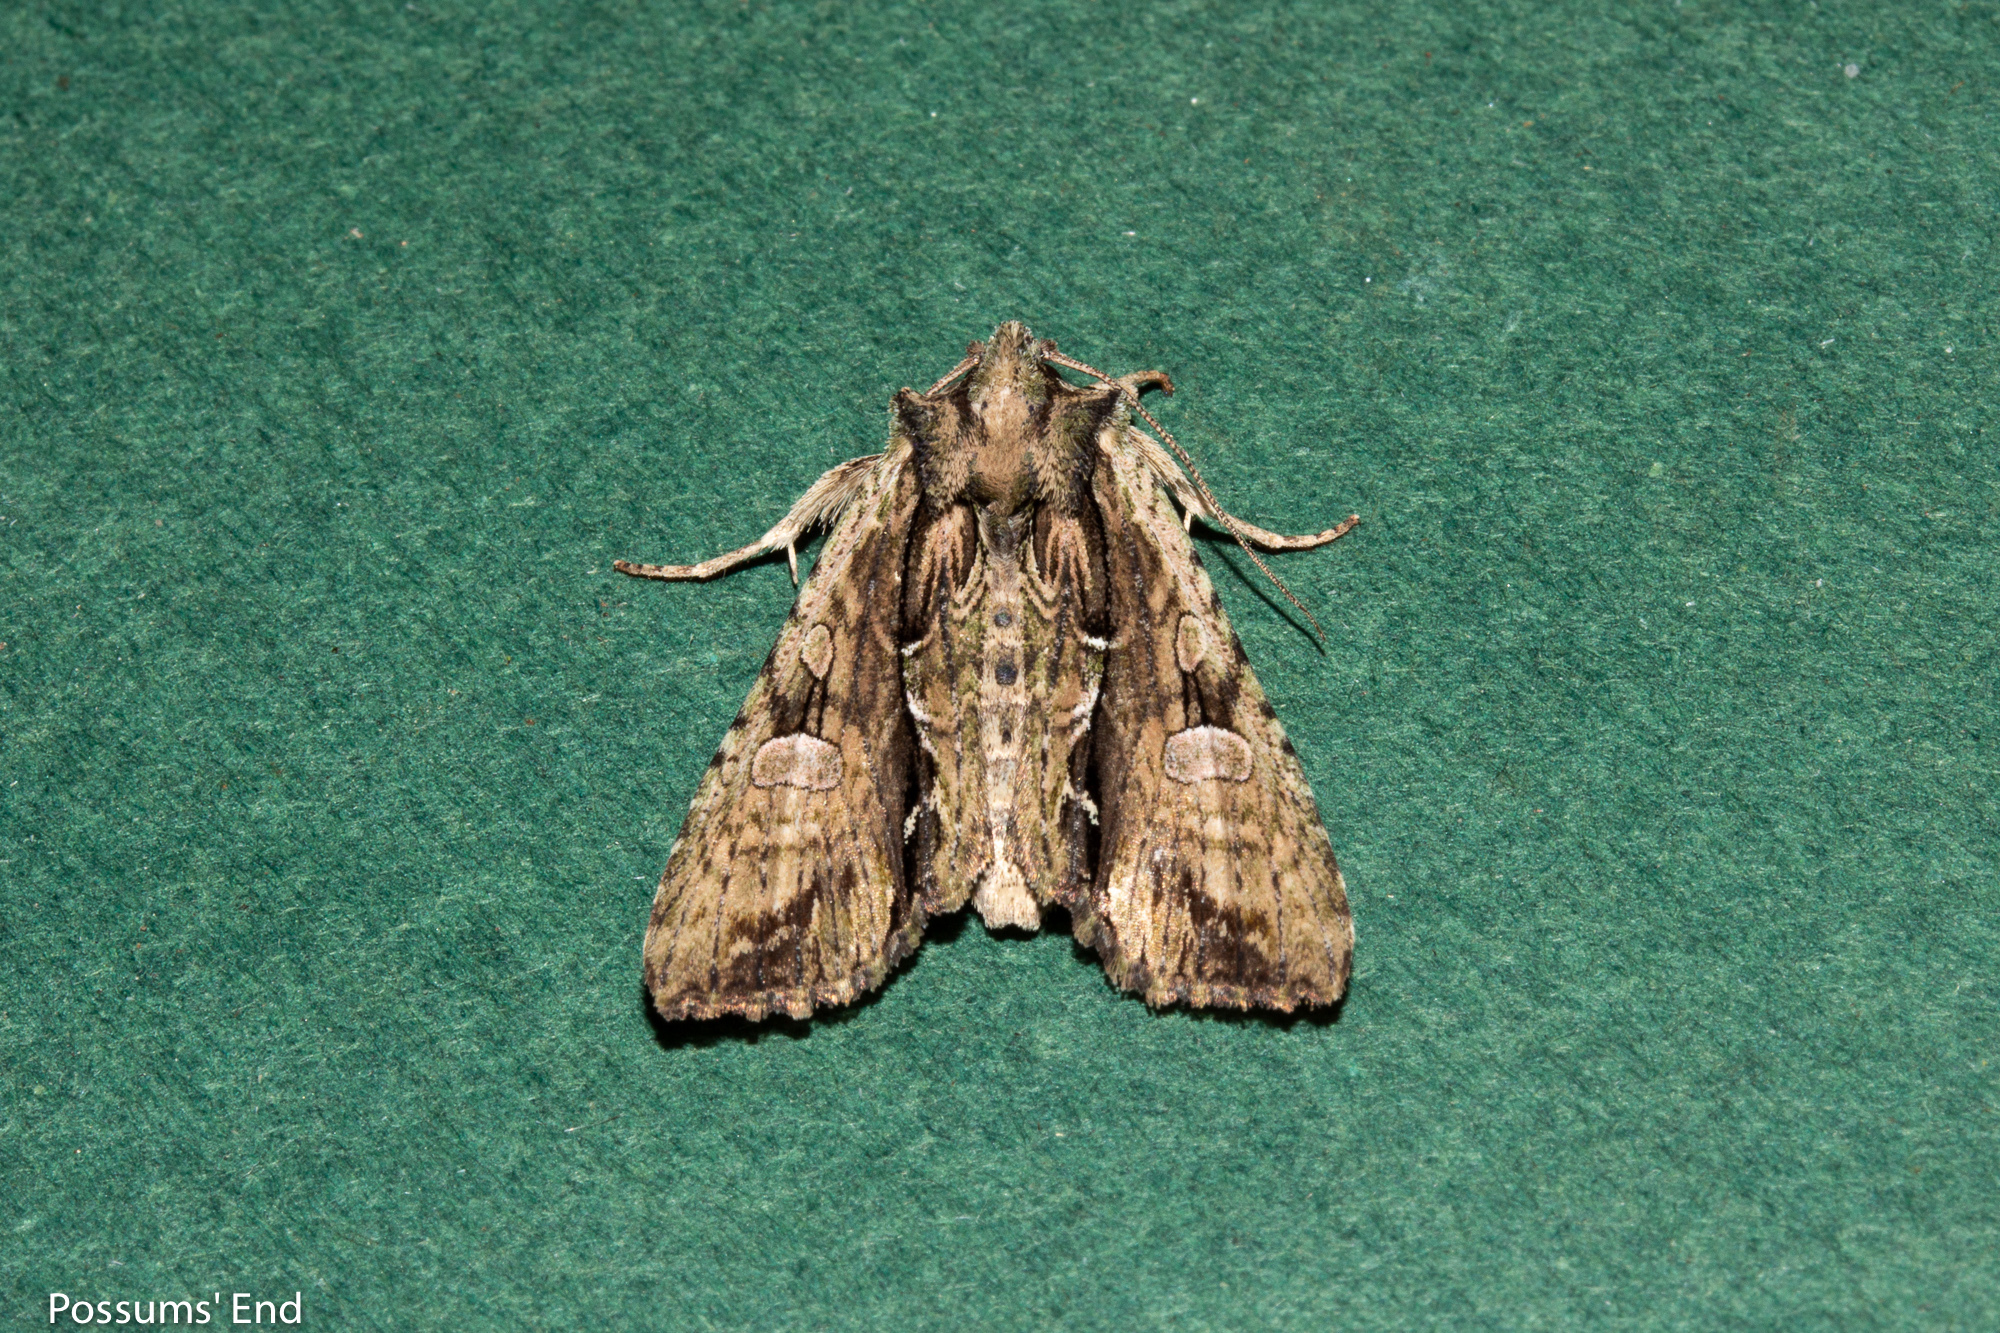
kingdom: Animalia
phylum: Arthropoda
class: Insecta
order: Lepidoptera
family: Noctuidae
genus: Meterana
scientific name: Meterana decorata
